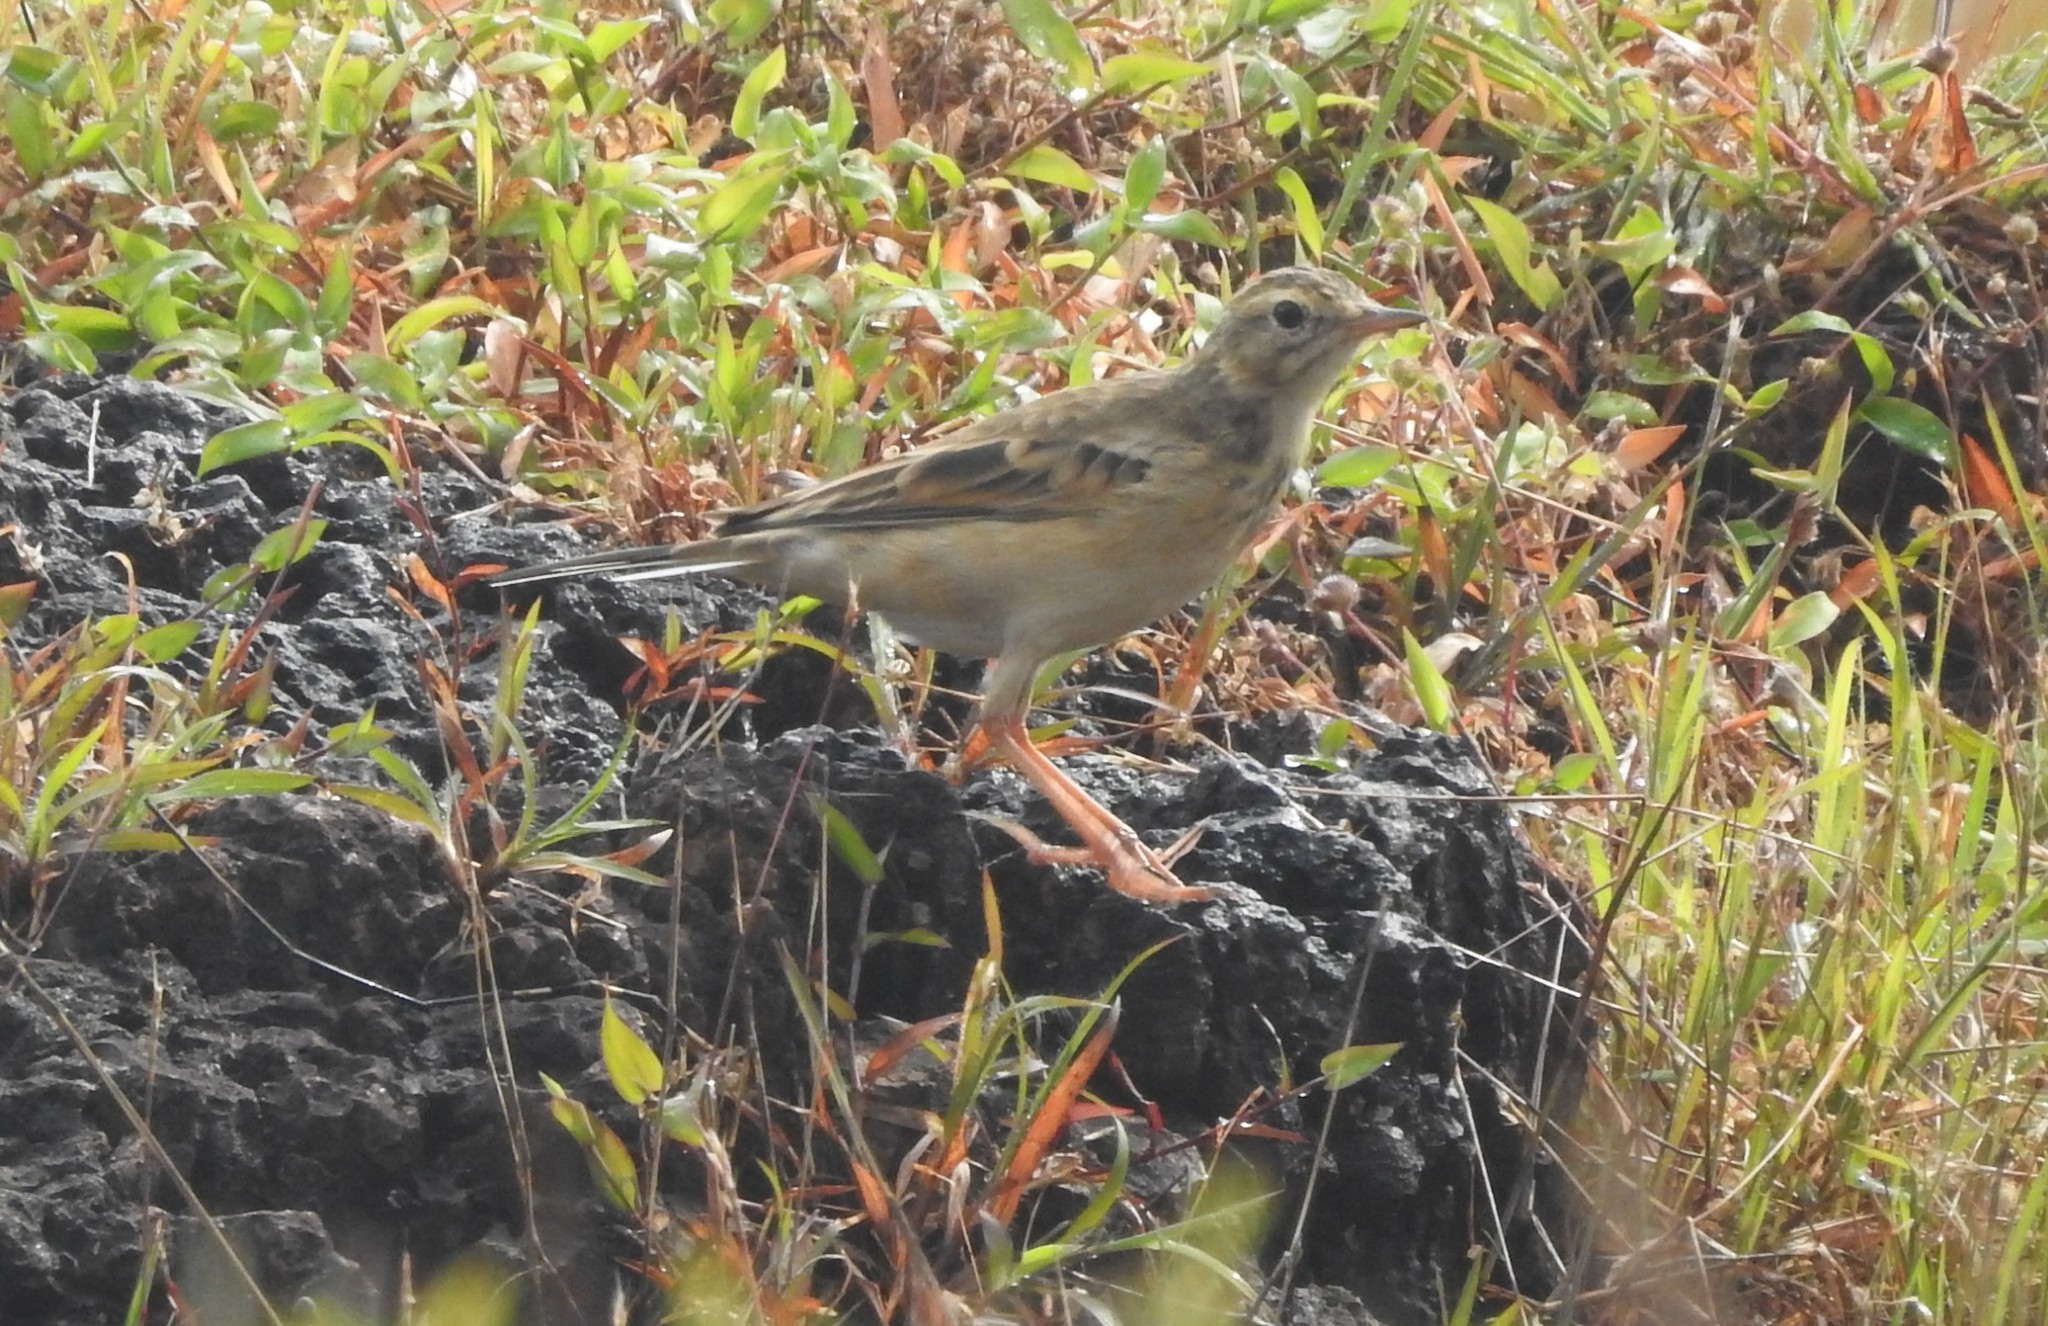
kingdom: Animalia
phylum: Chordata
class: Aves
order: Passeriformes
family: Motacillidae
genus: Anthus
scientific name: Anthus rufulus
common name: Paddyfield pipit
